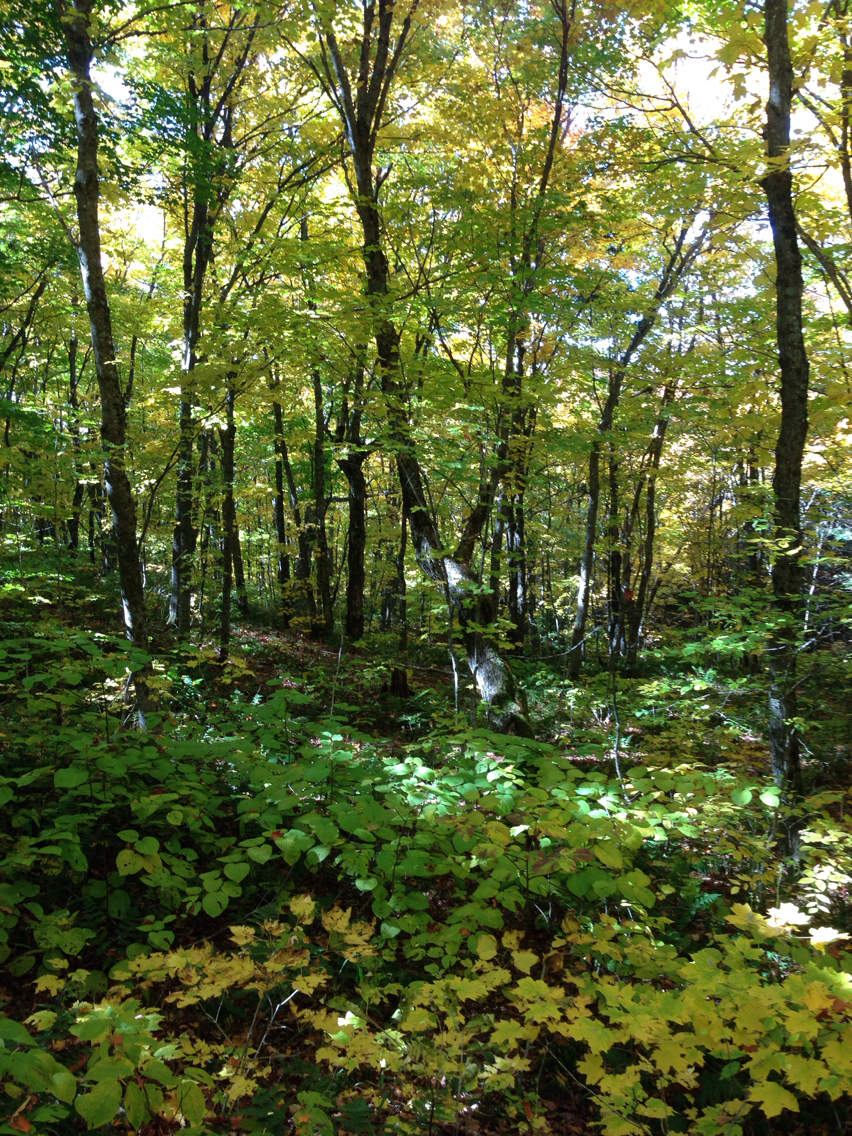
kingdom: Plantae
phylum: Tracheophyta
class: Magnoliopsida
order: Sapindales
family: Sapindaceae
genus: Acer
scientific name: Acer saccharum
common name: Sugar maple
